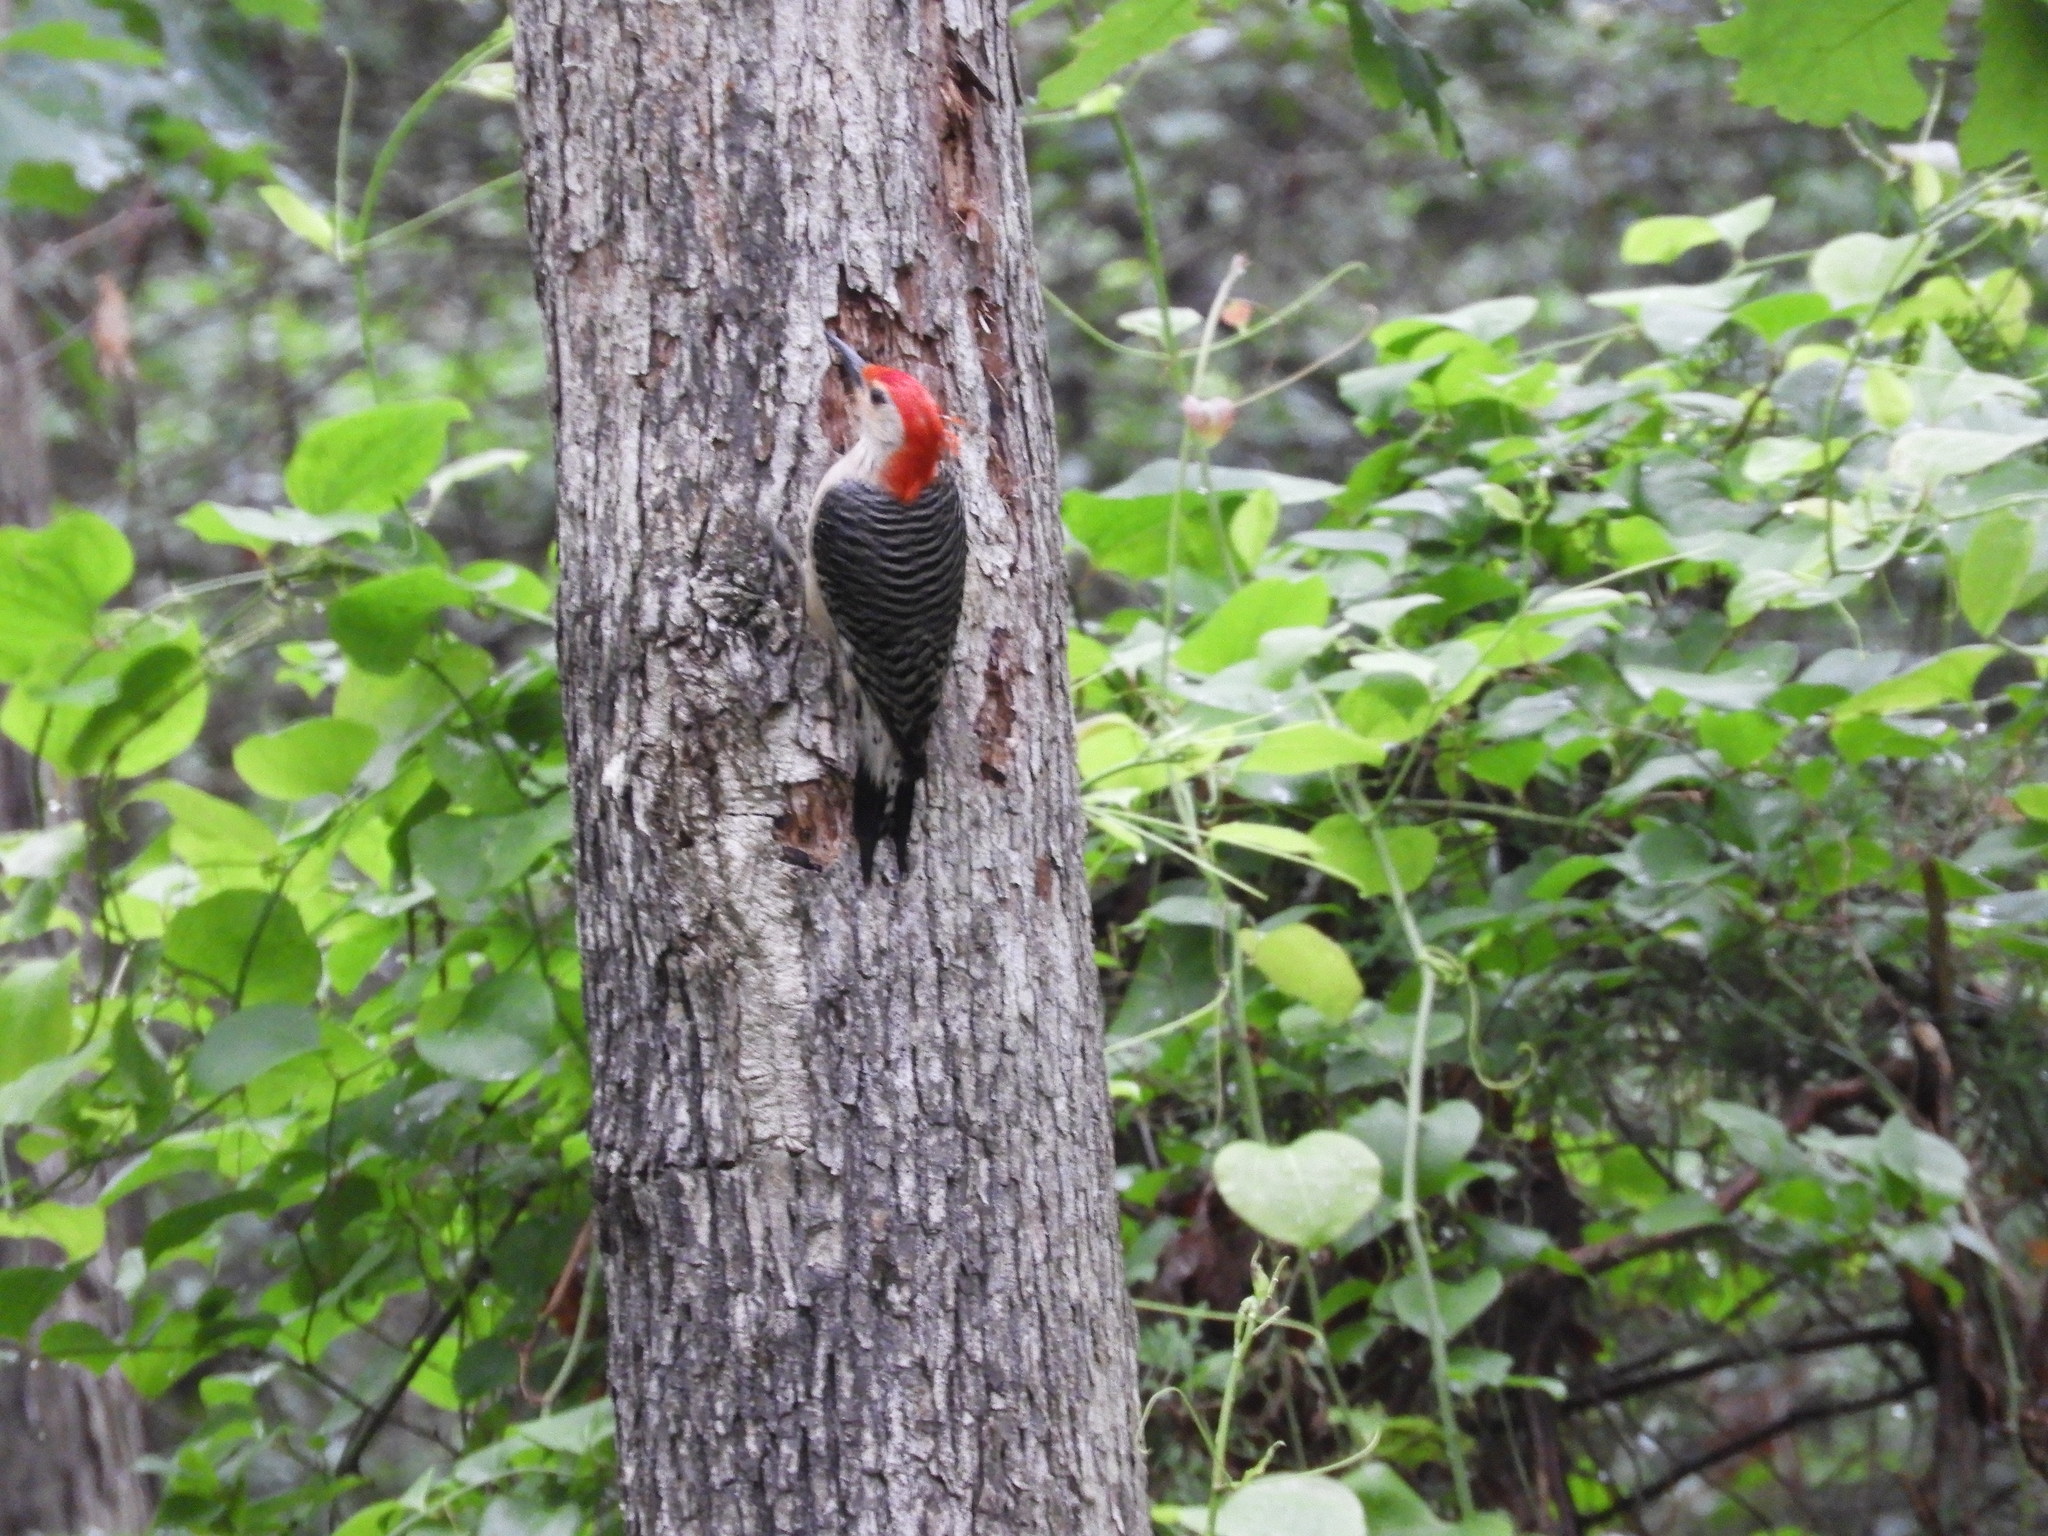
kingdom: Animalia
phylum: Chordata
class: Aves
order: Piciformes
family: Picidae
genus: Melanerpes
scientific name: Melanerpes carolinus
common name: Red-bellied woodpecker
